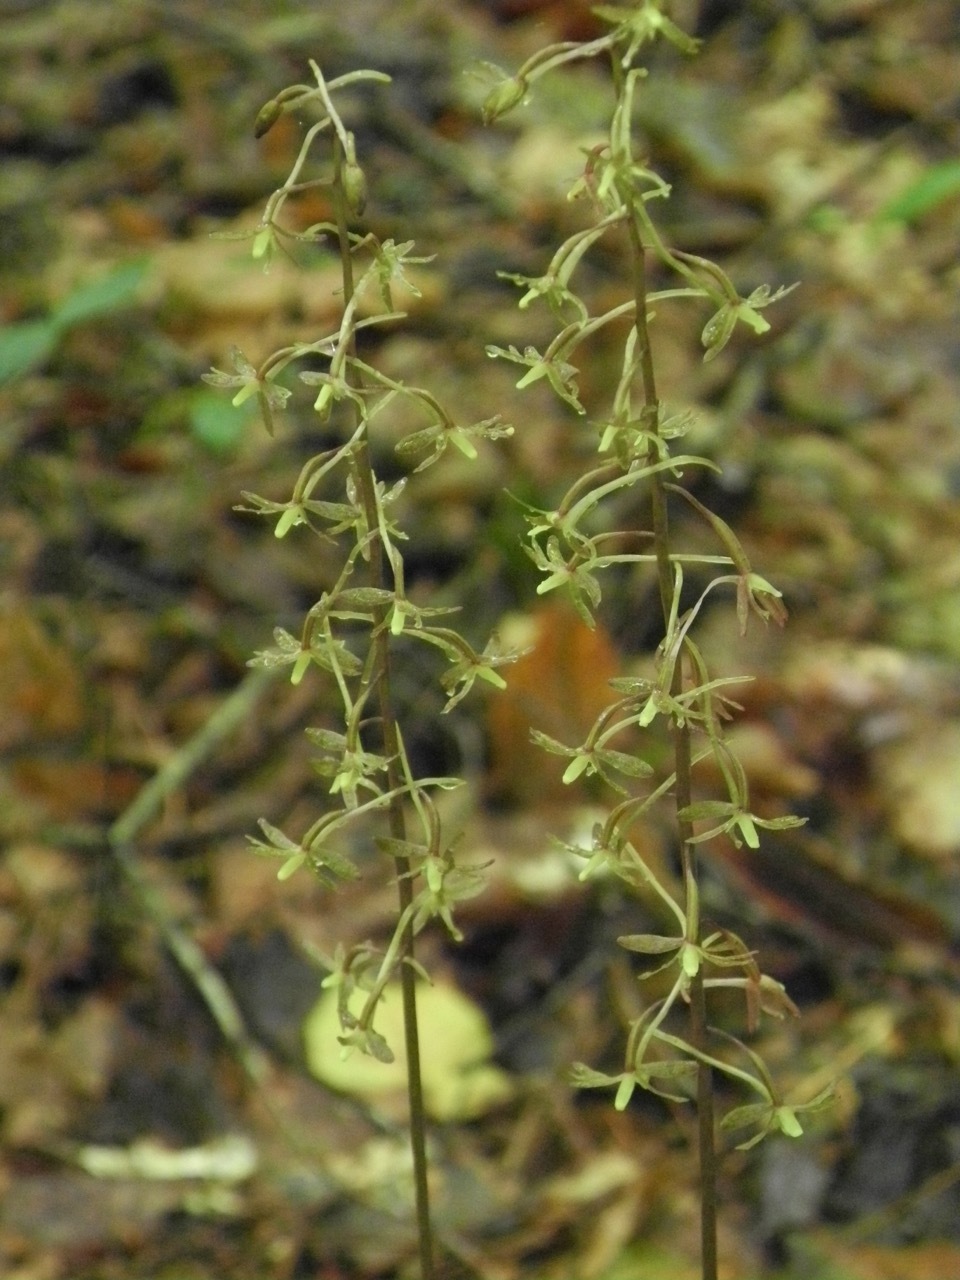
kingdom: Plantae
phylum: Tracheophyta
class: Liliopsida
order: Asparagales
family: Orchidaceae
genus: Tipularia
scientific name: Tipularia discolor
